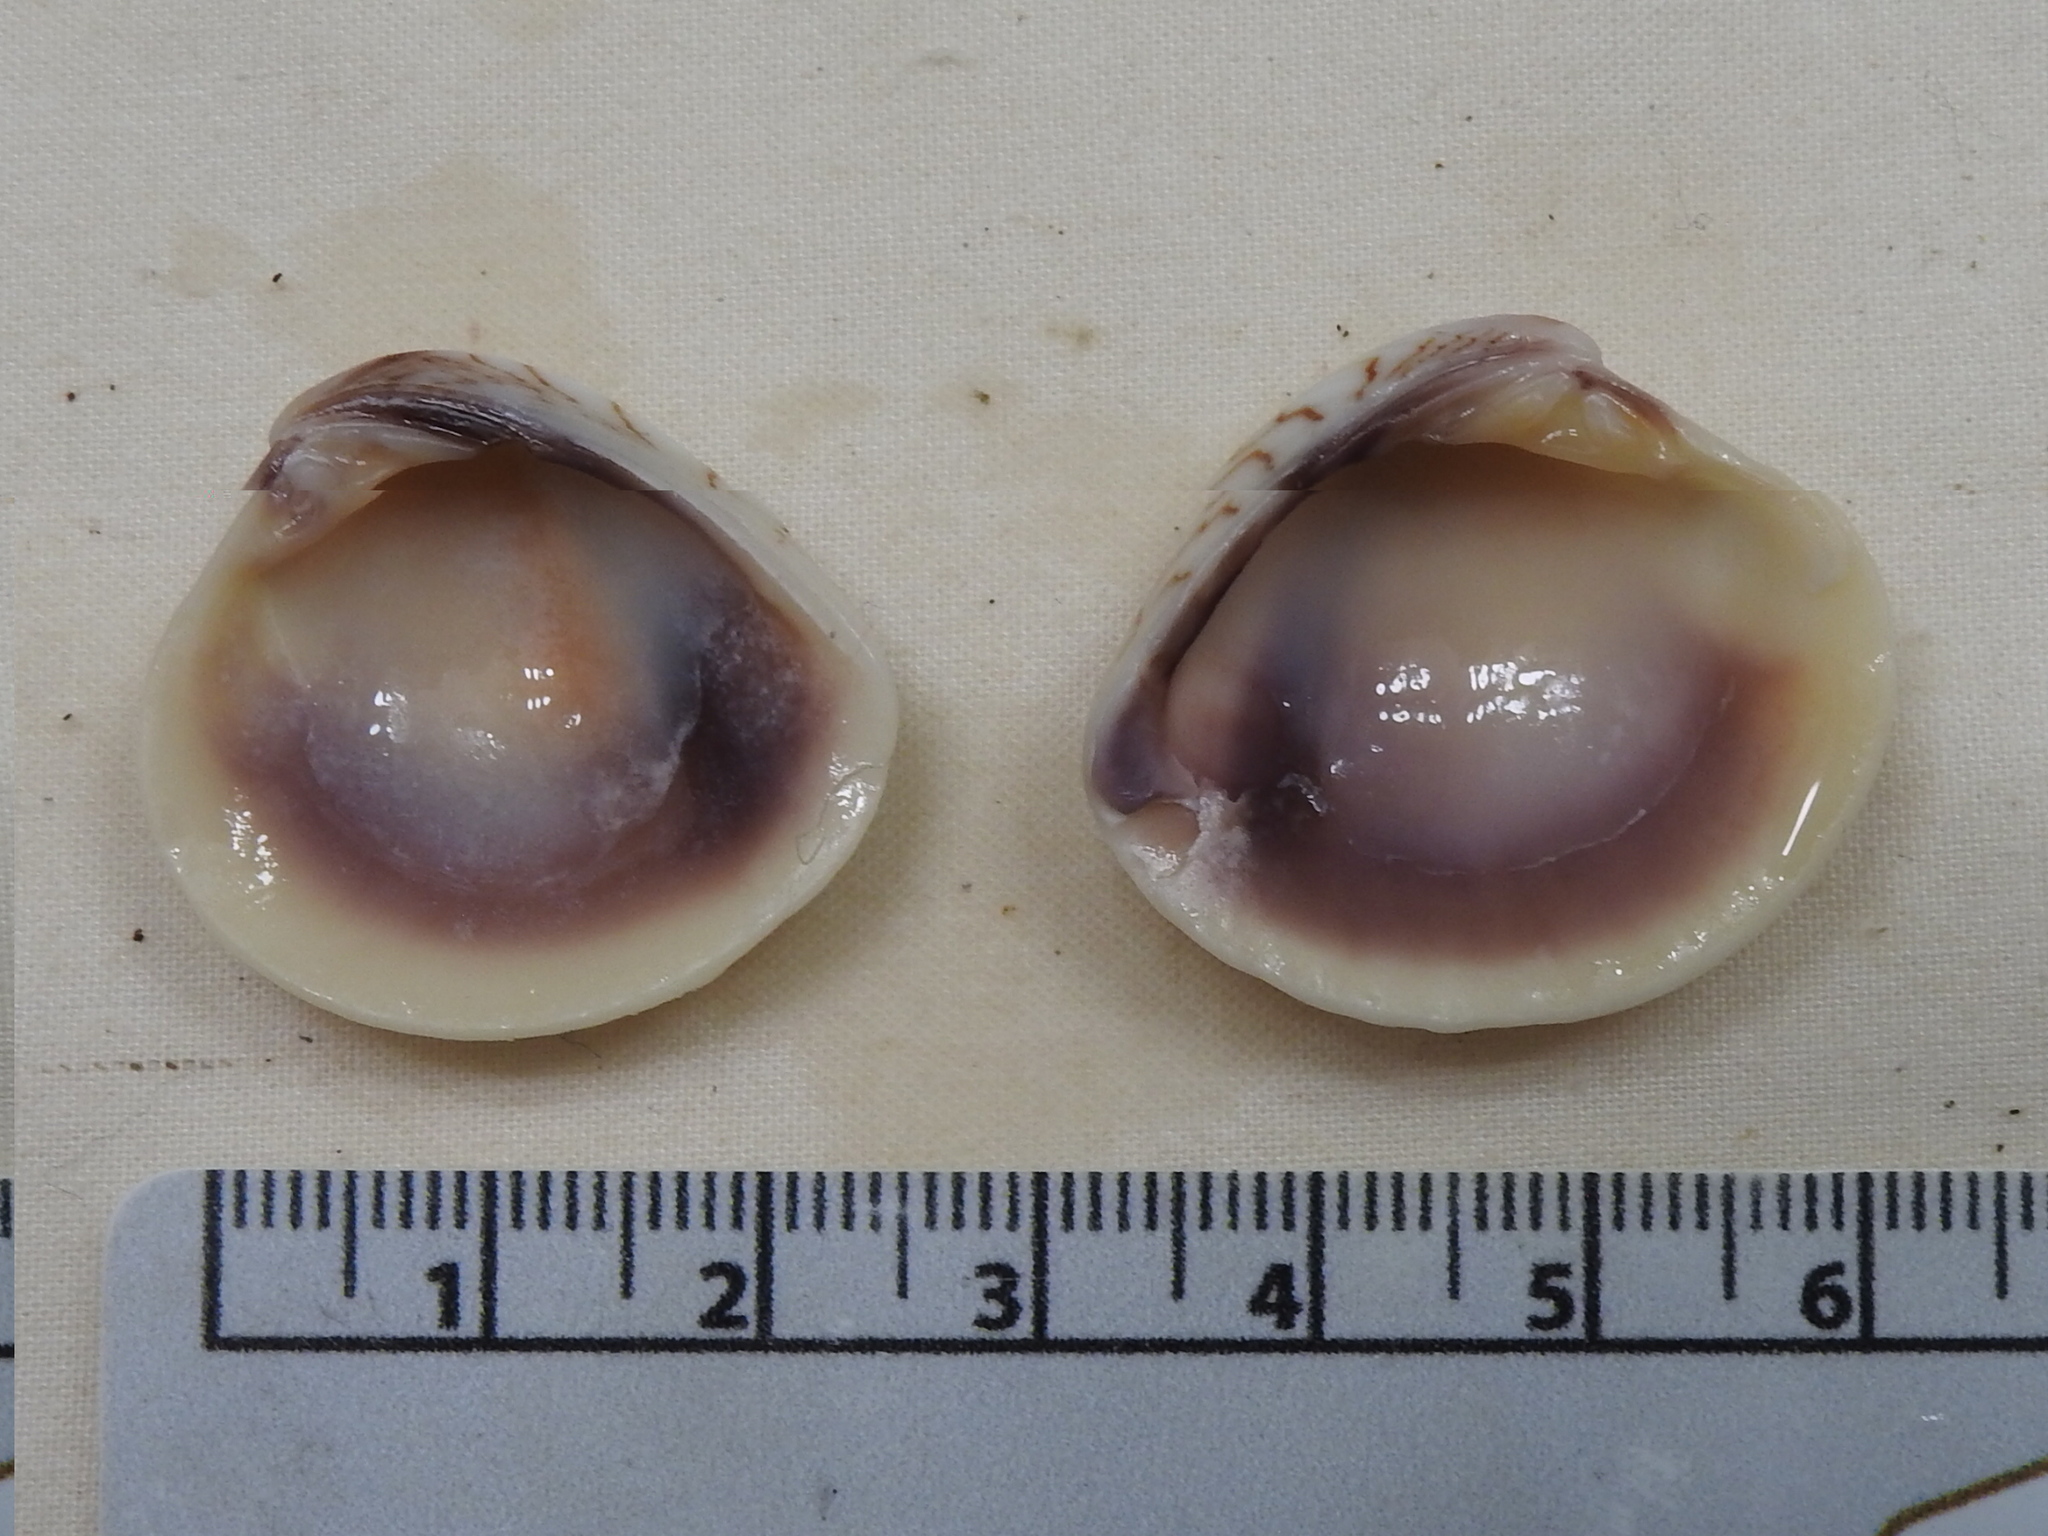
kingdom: Animalia
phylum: Mollusca
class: Bivalvia
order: Venerida
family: Veneridae
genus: Chione
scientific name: Chione elevata
